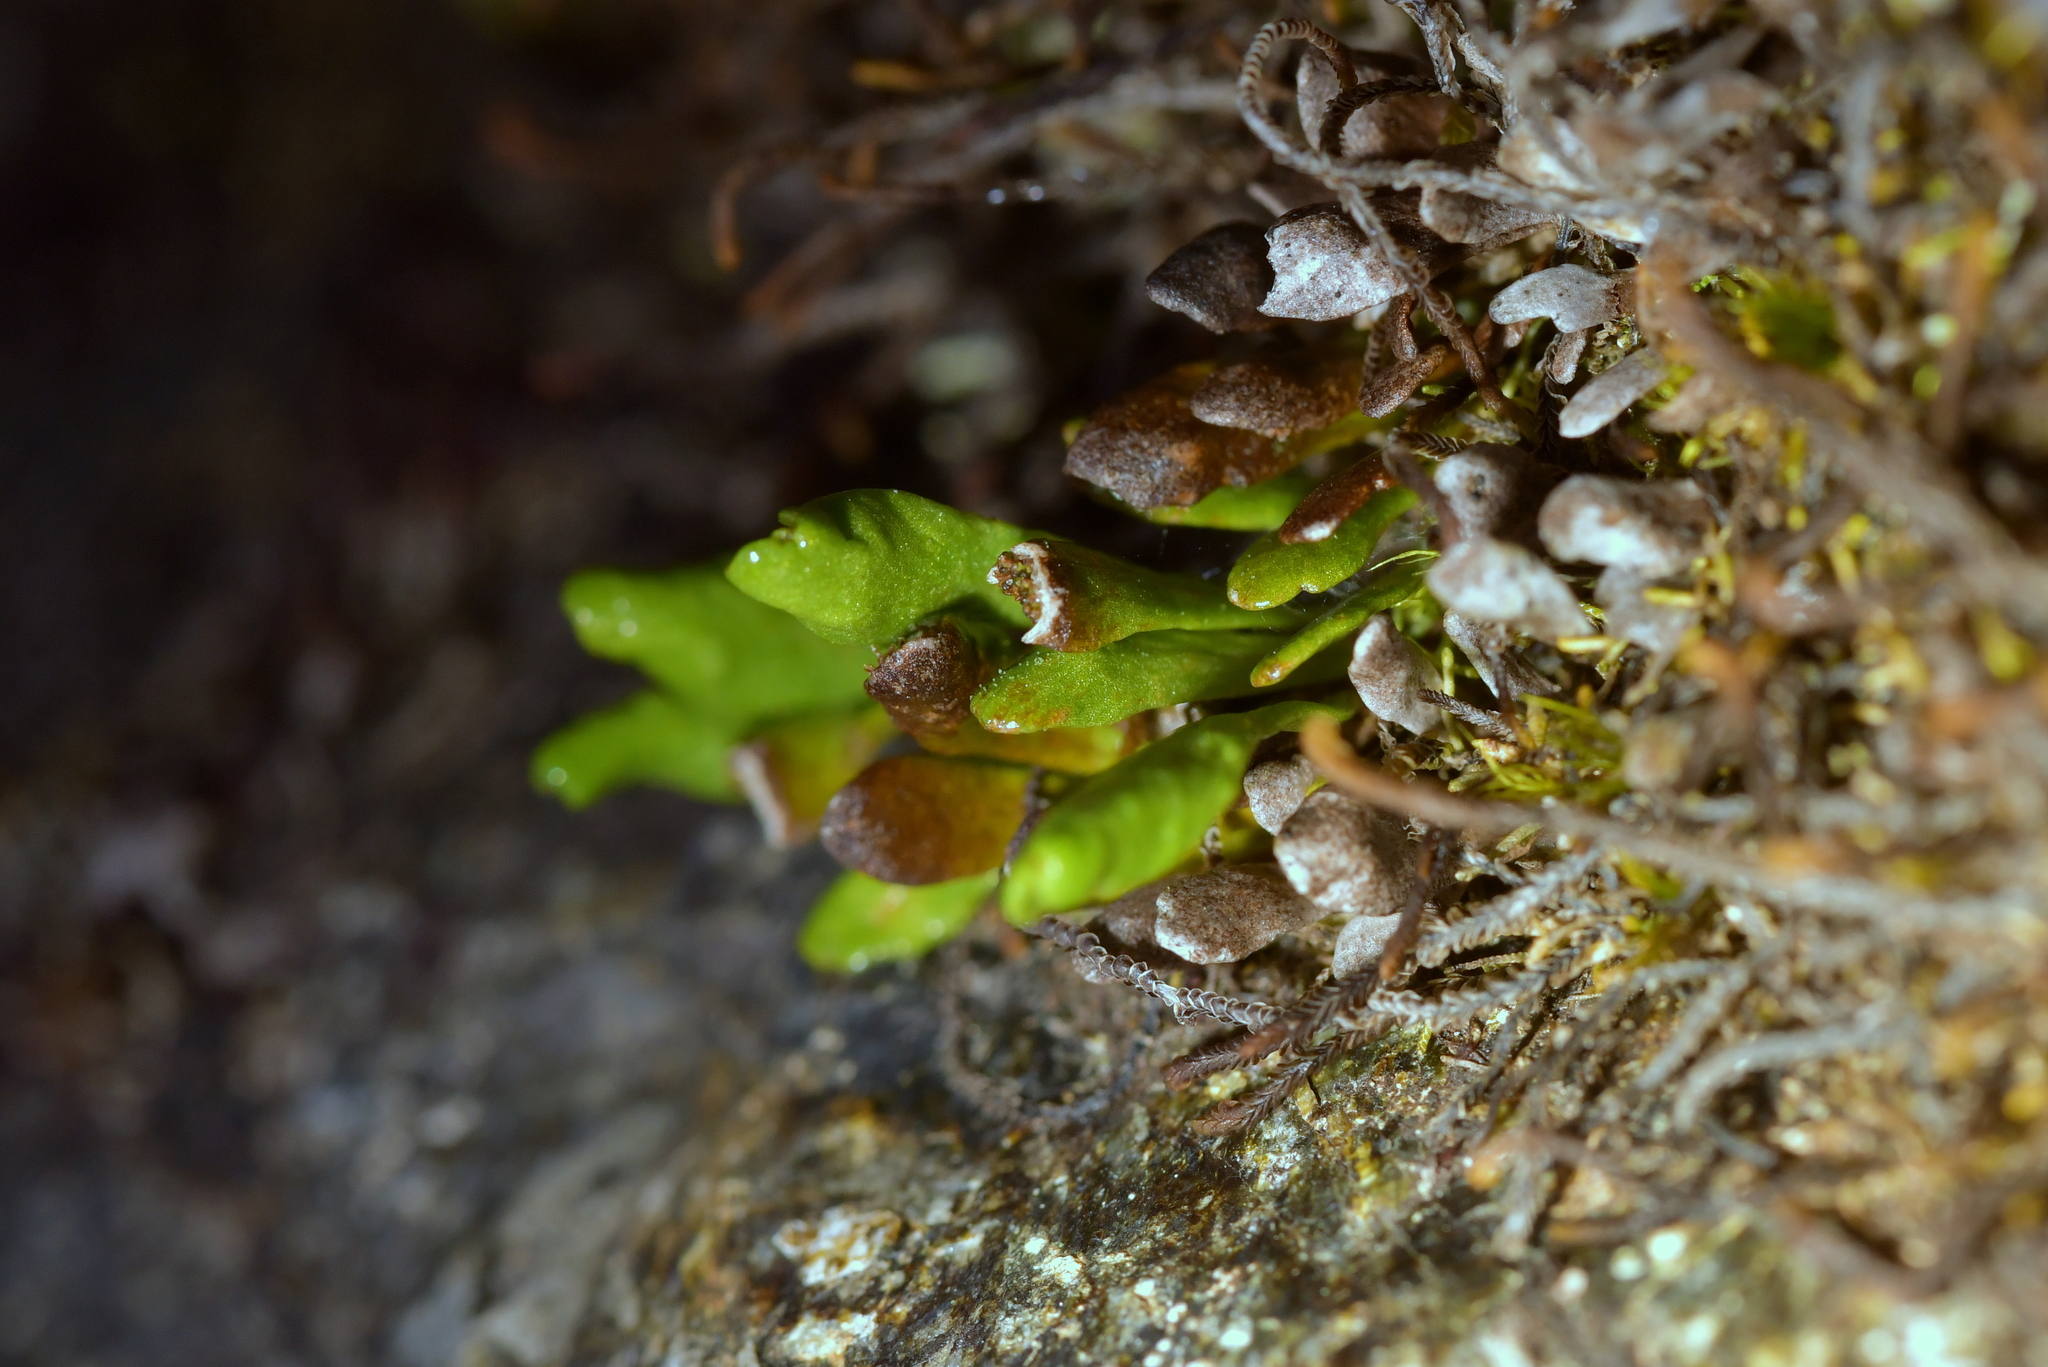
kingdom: Plantae
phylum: Tracheophyta
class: Polypodiopsida
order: Polypodiales
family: Polypodiaceae
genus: Notogrammitis
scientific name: Notogrammitis crassior
